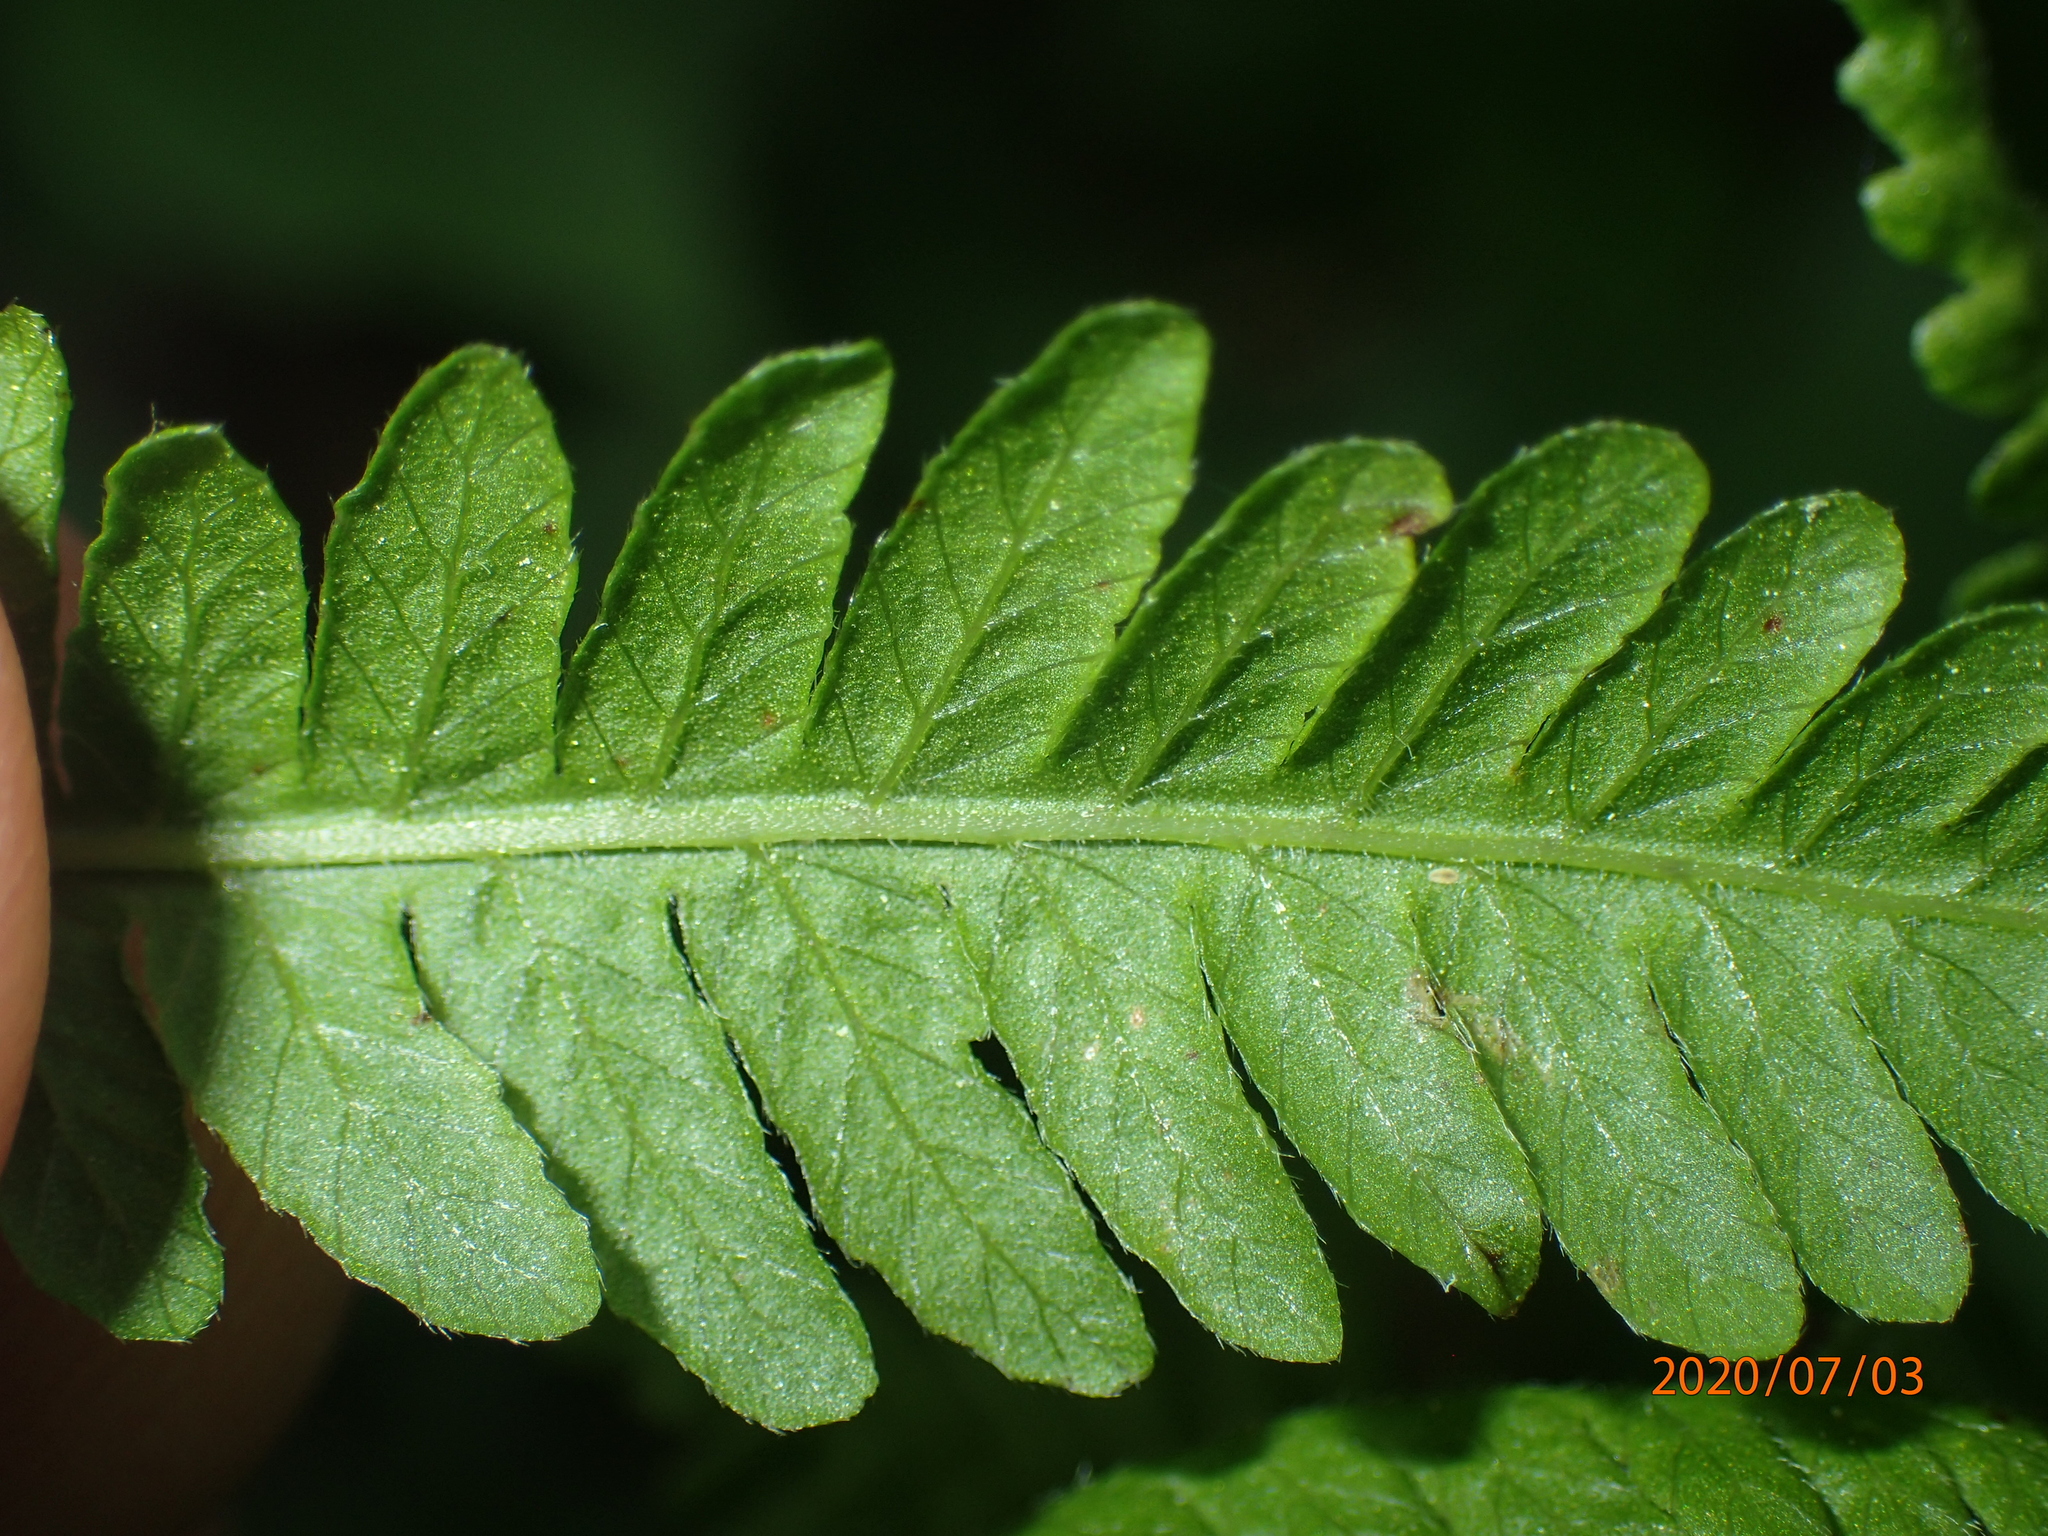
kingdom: Plantae
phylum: Tracheophyta
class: Polypodiopsida
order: Polypodiales
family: Thelypteridaceae
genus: Coryphopteris
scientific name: Coryphopteris simulata
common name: Bog fern
